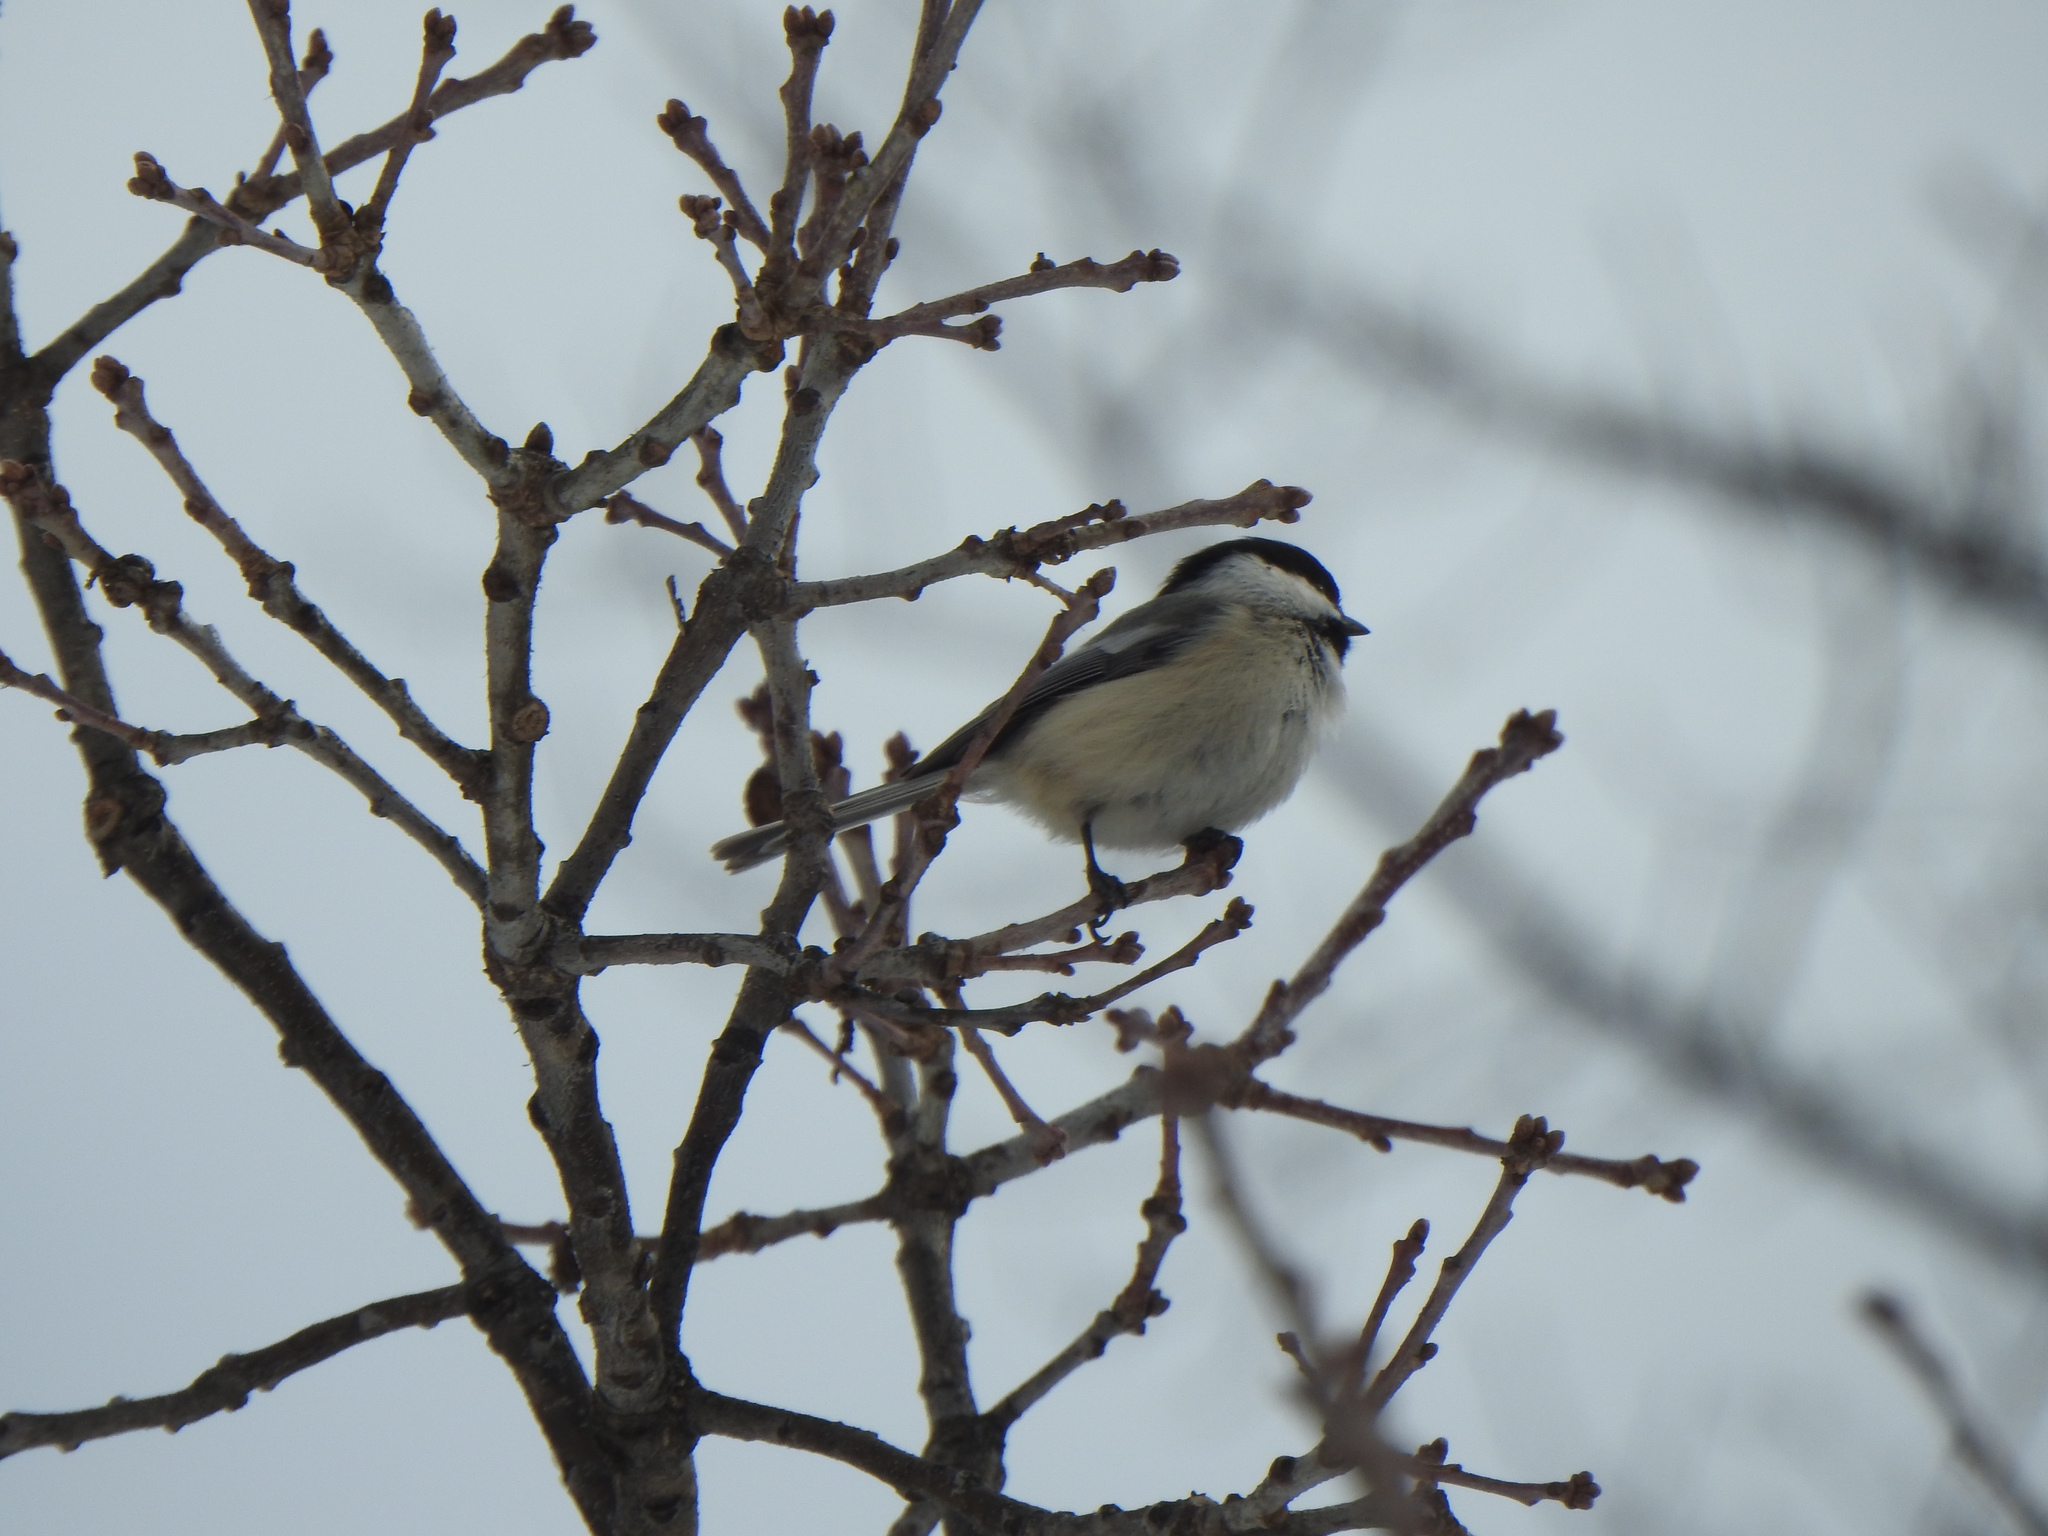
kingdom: Animalia
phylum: Chordata
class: Aves
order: Passeriformes
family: Paridae
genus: Poecile
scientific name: Poecile atricapillus
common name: Black-capped chickadee
